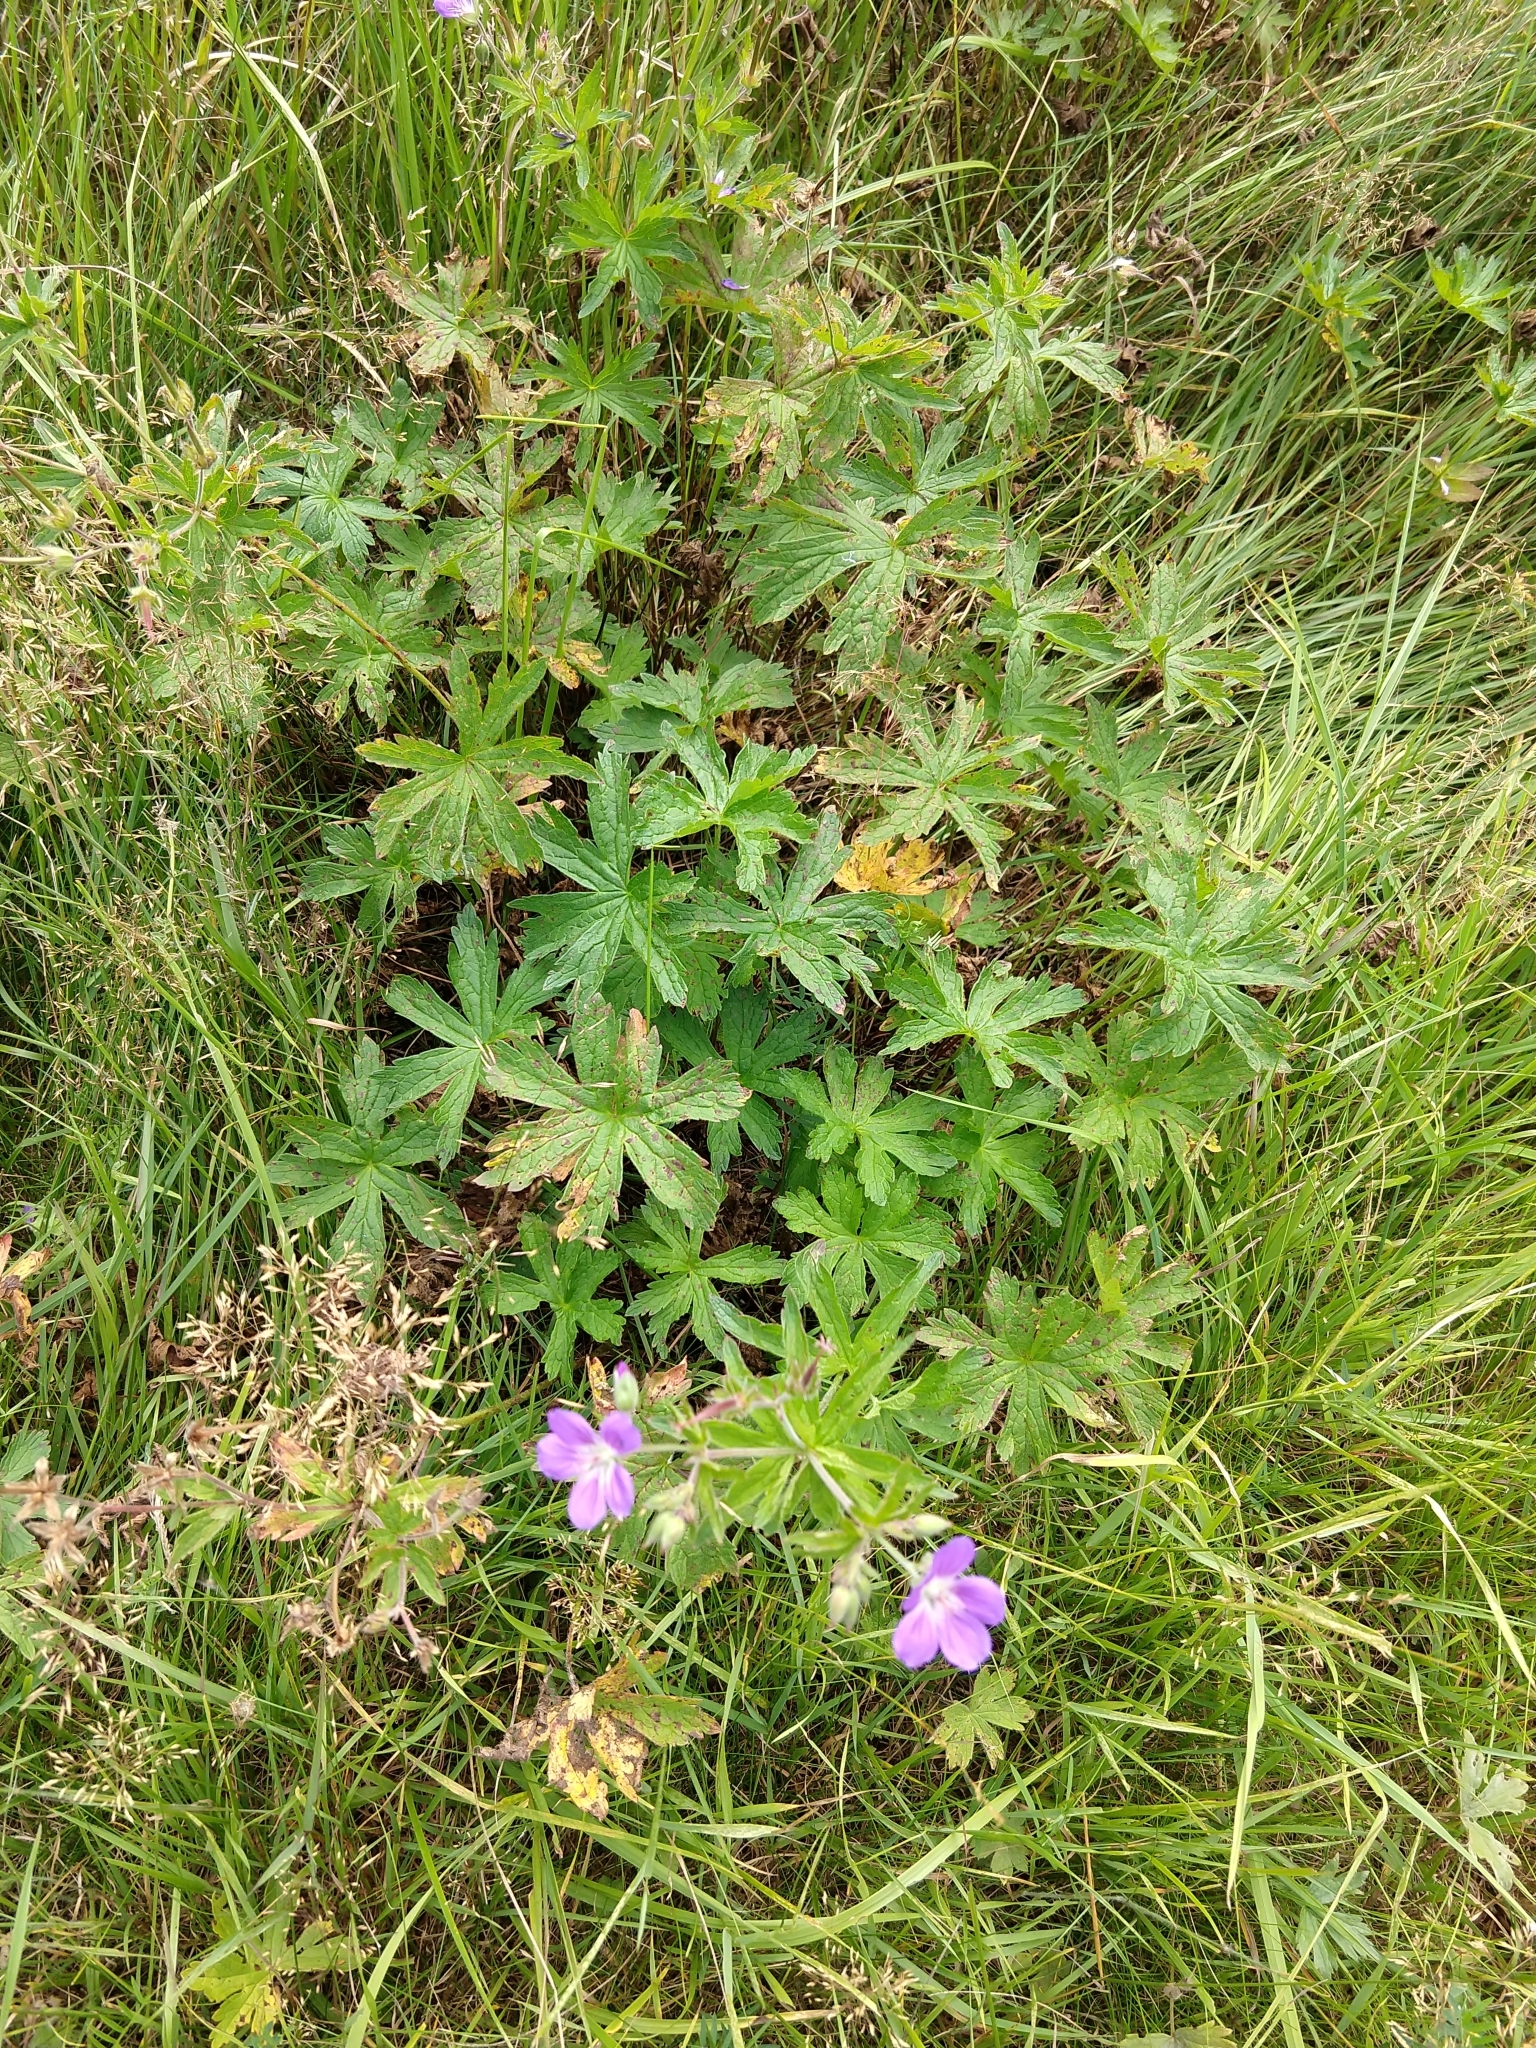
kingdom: Plantae
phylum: Tracheophyta
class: Magnoliopsida
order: Geraniales
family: Geraniaceae
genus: Geranium
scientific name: Geranium sylvaticum
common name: Wood crane's-bill
